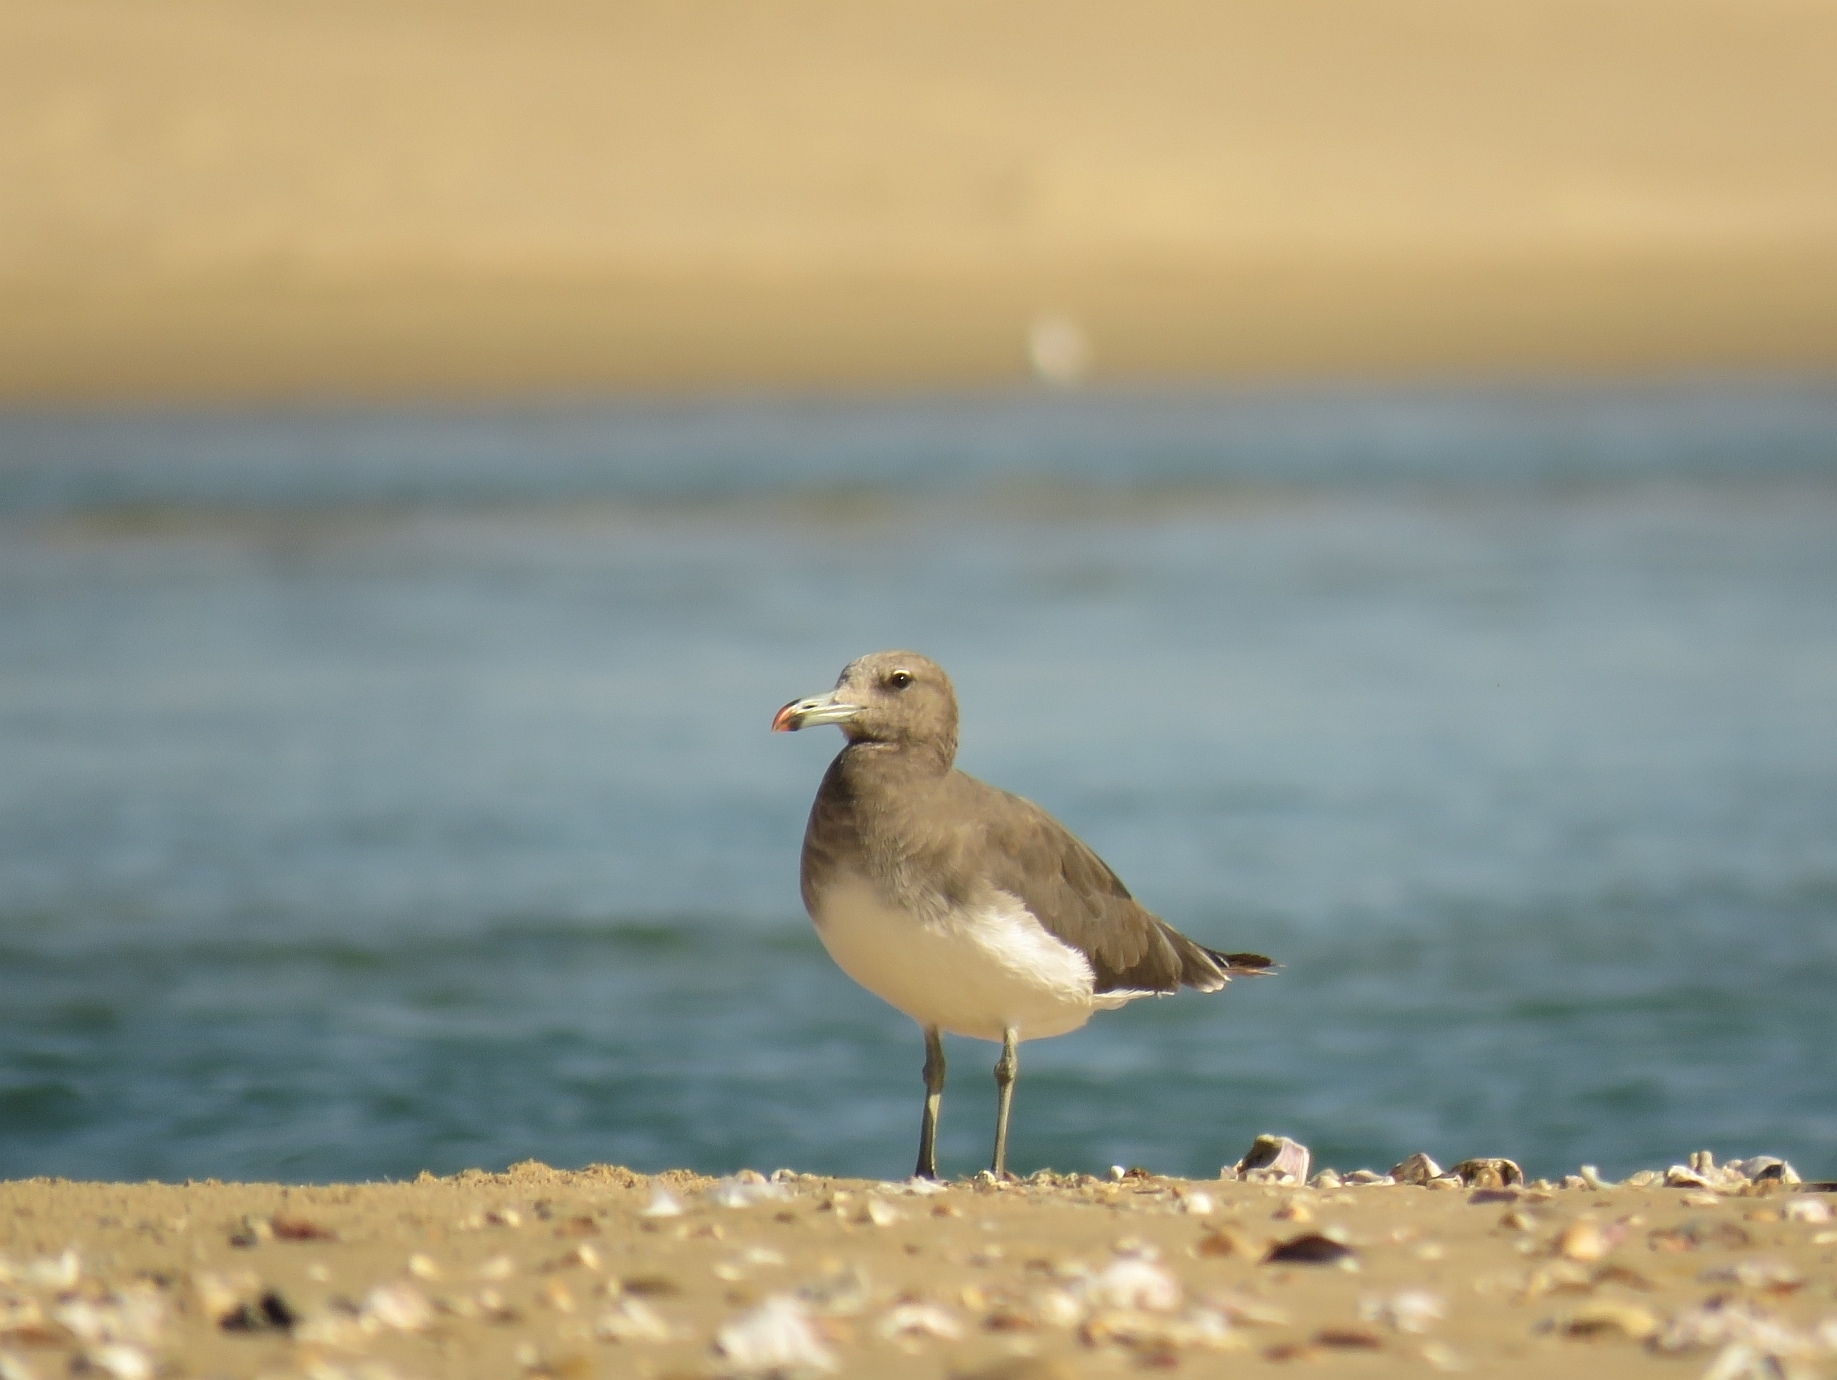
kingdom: Animalia
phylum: Chordata
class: Aves
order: Charadriiformes
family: Laridae
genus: Ichthyaetus
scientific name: Ichthyaetus hemprichii
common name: Sooty gull
